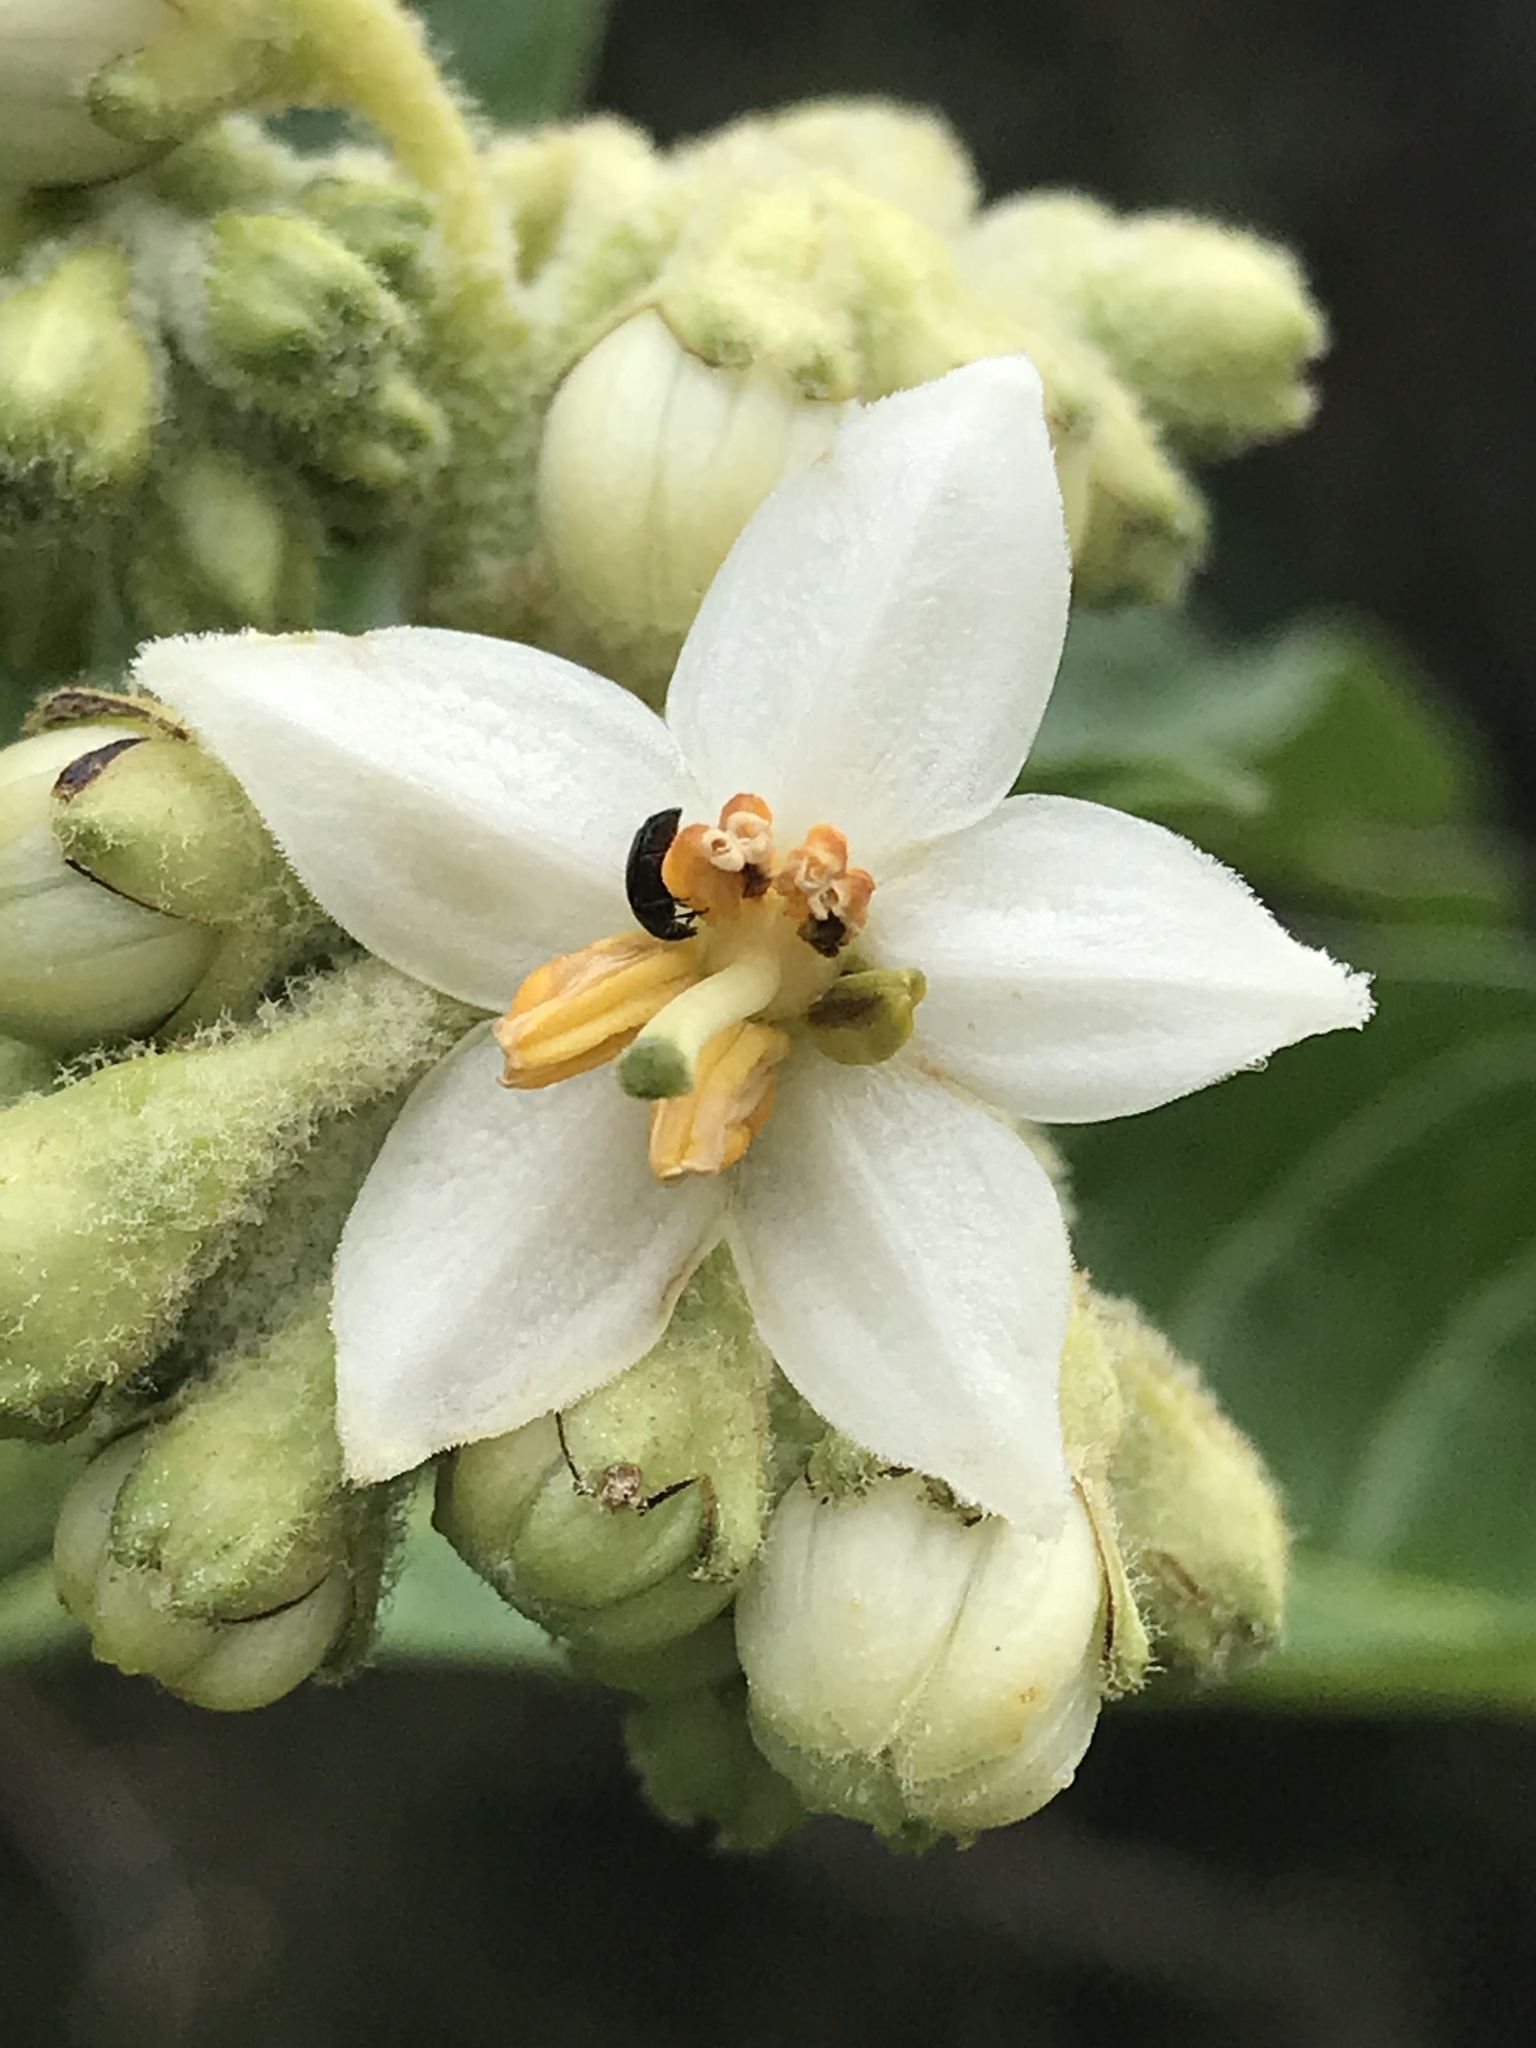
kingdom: Plantae
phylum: Tracheophyta
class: Magnoliopsida
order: Solanales
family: Solanaceae
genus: Solanum
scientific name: Solanum oblongifolium
